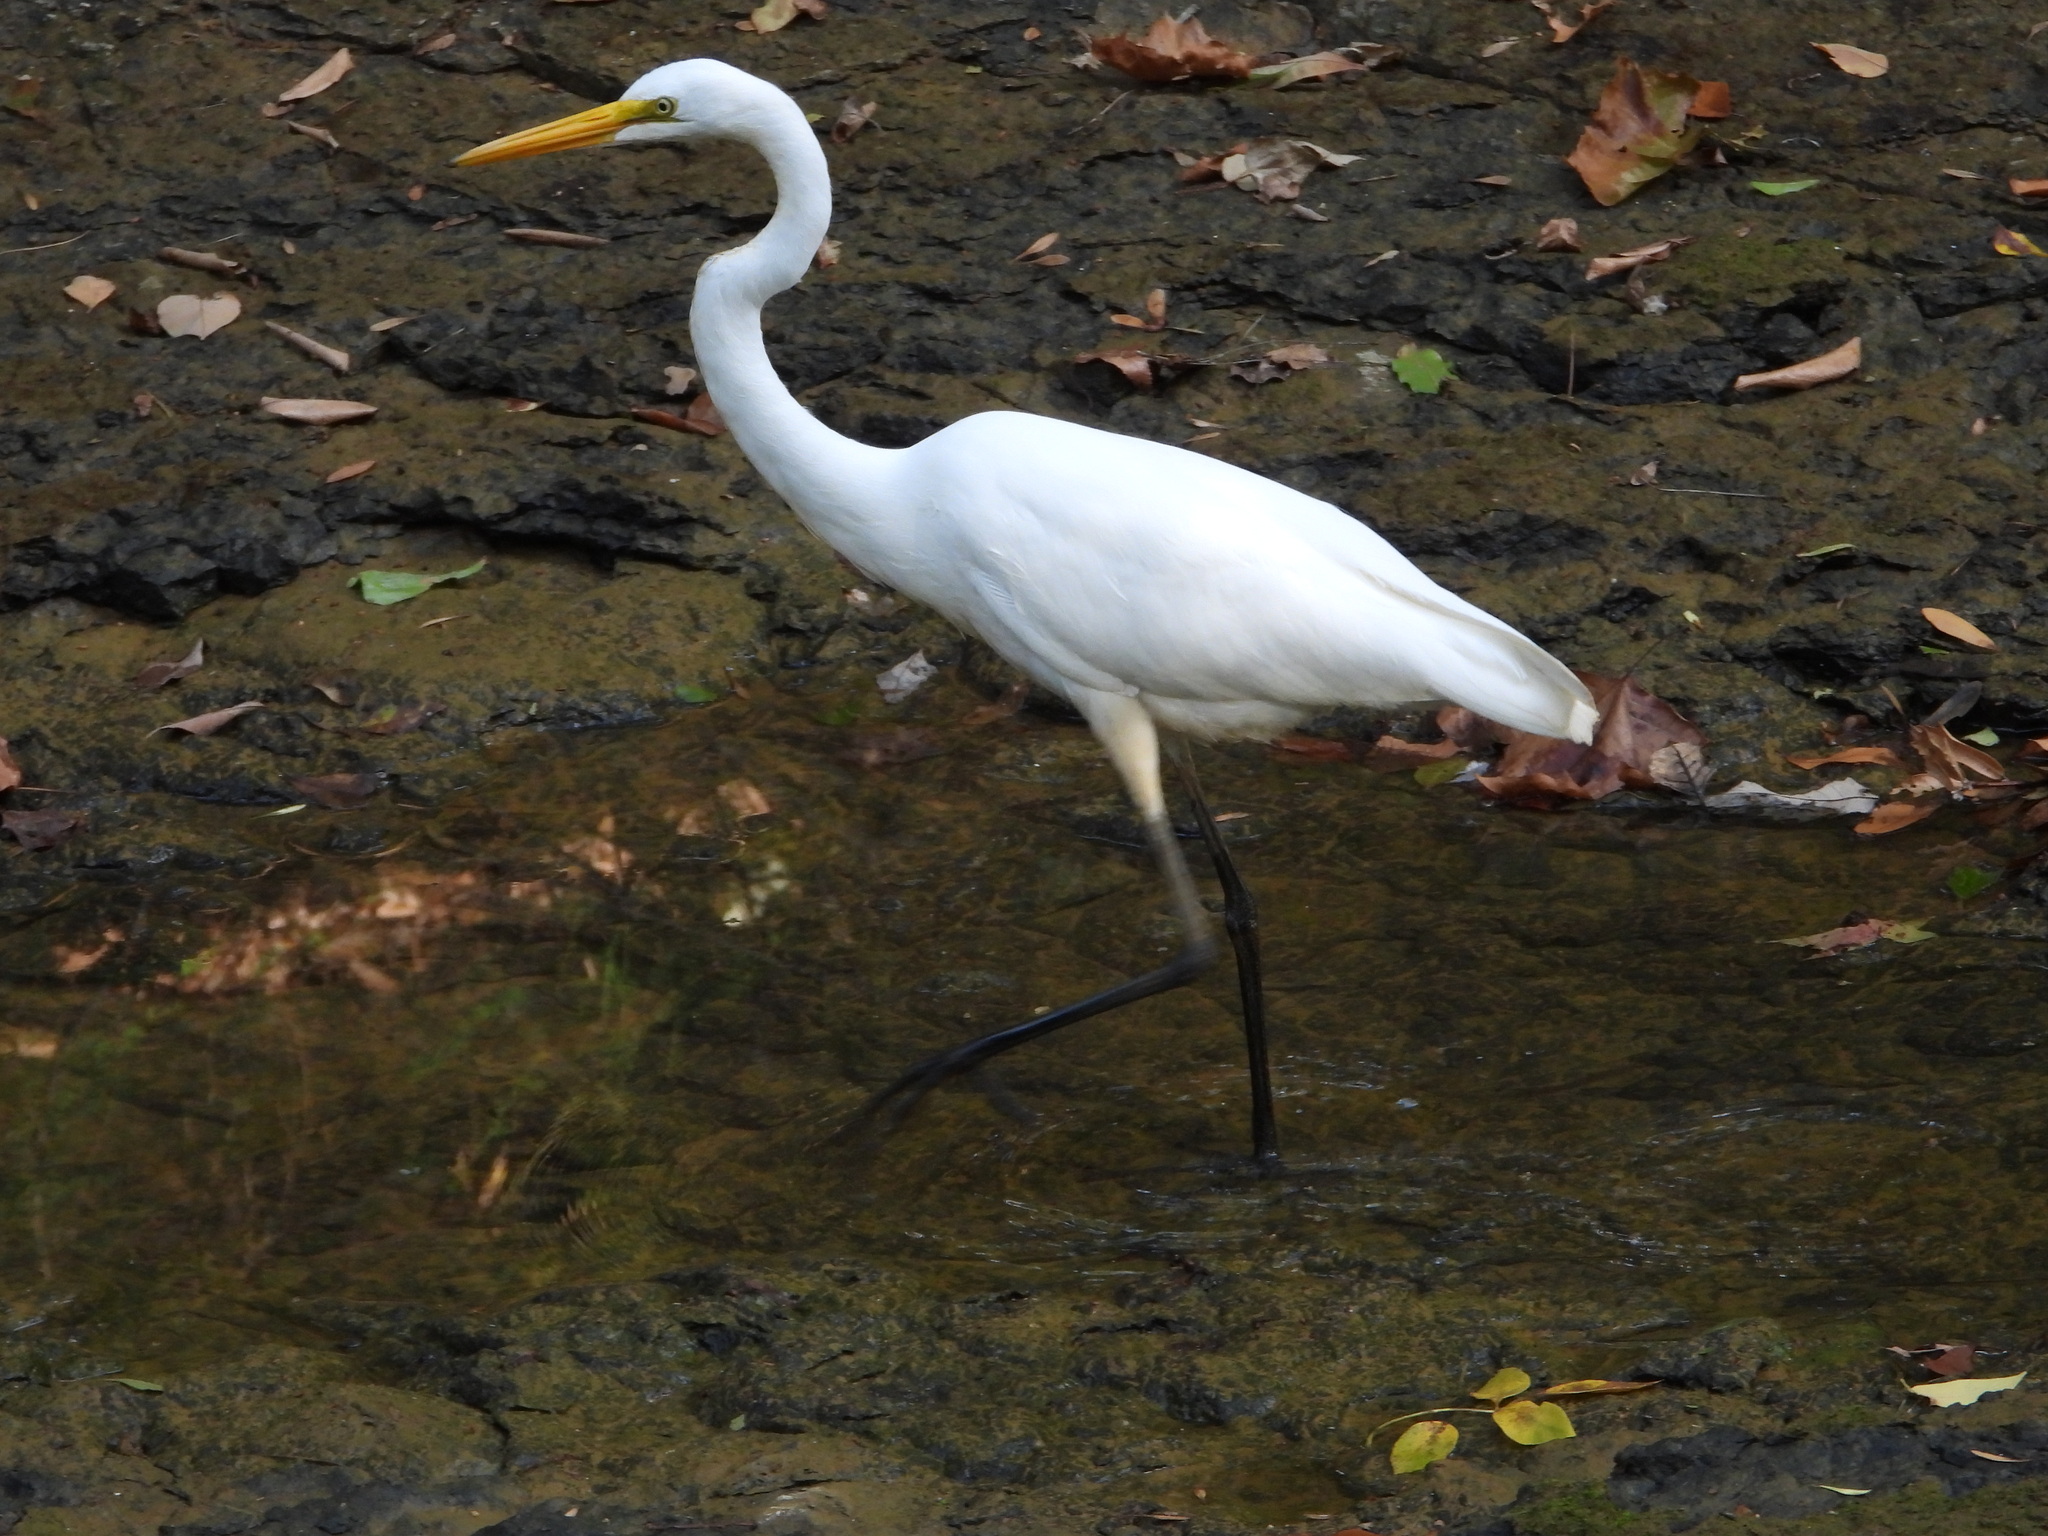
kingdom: Animalia
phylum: Chordata
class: Aves
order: Pelecaniformes
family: Ardeidae
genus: Ardea
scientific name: Ardea alba
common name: Great egret
